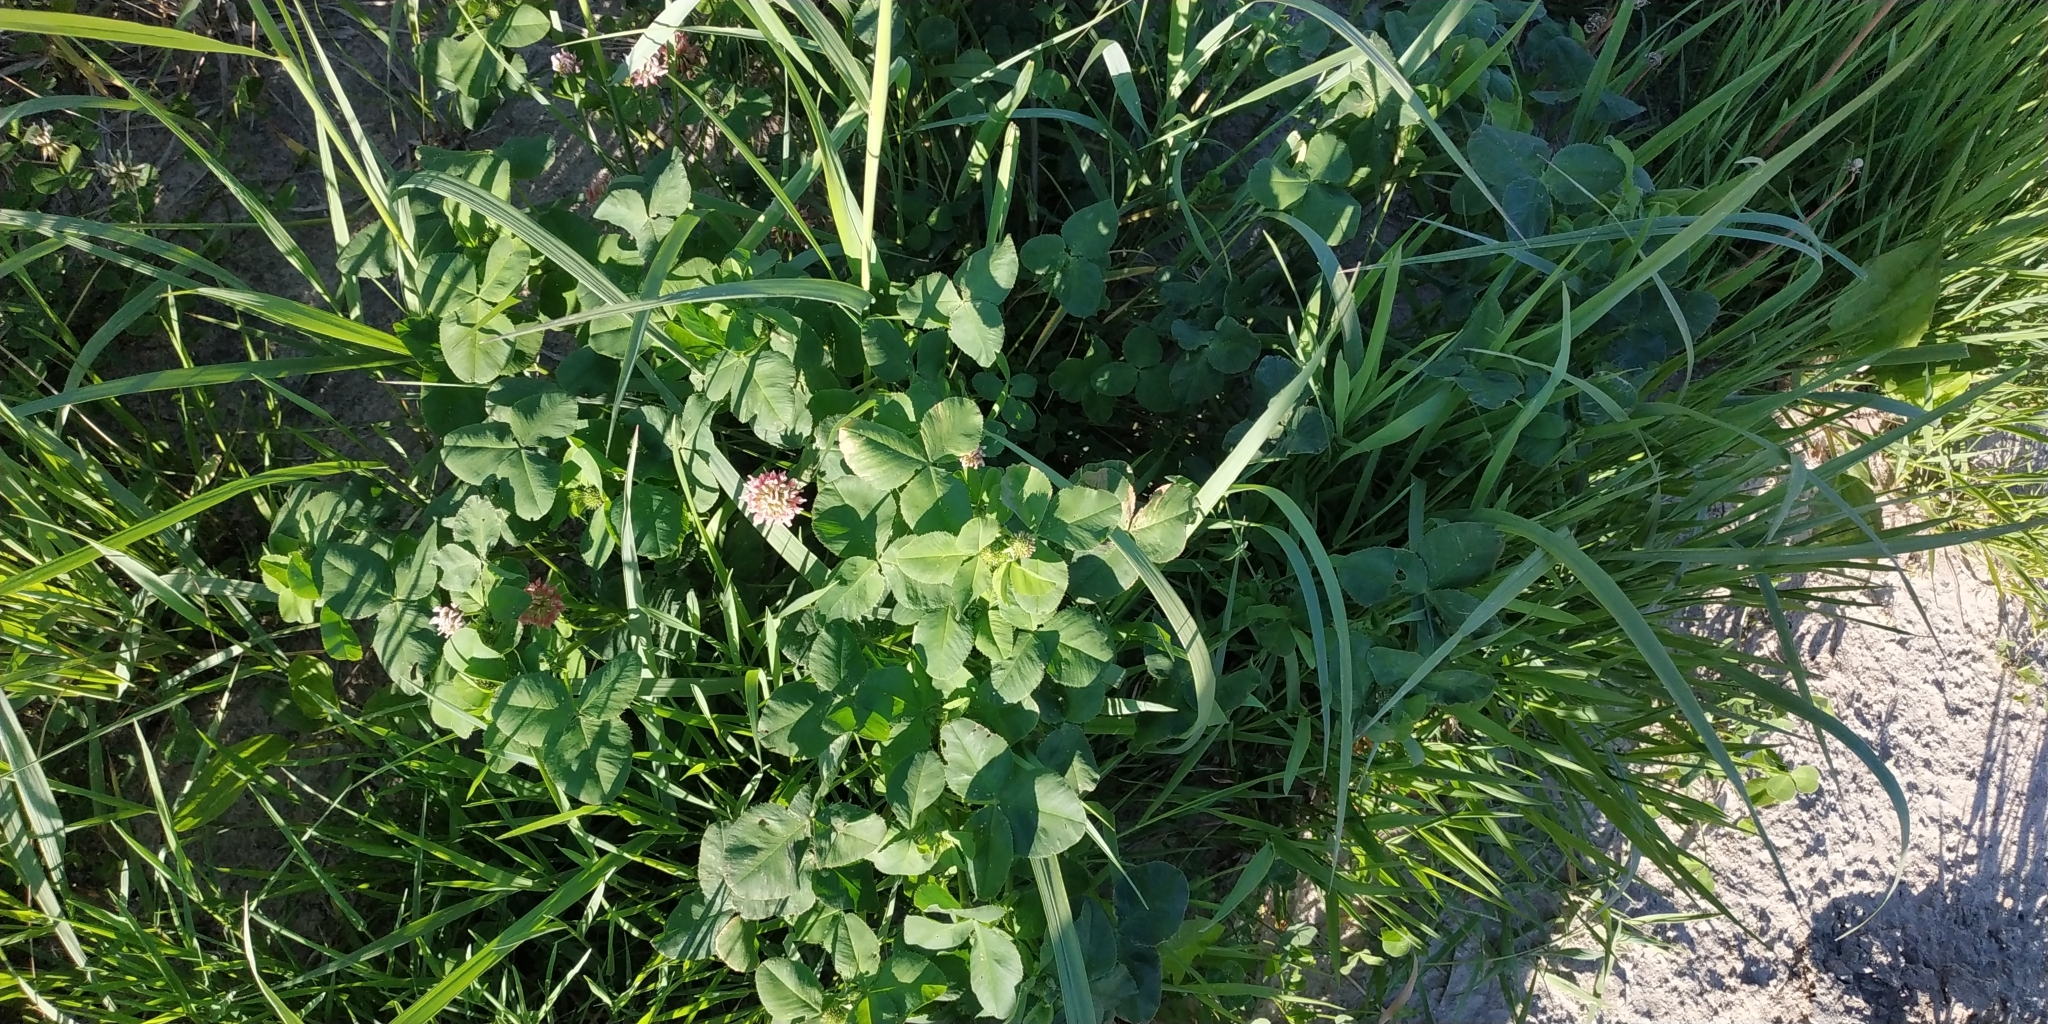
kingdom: Plantae
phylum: Tracheophyta
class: Magnoliopsida
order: Fabales
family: Fabaceae
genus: Trifolium
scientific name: Trifolium hybridum
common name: Alsike clover
